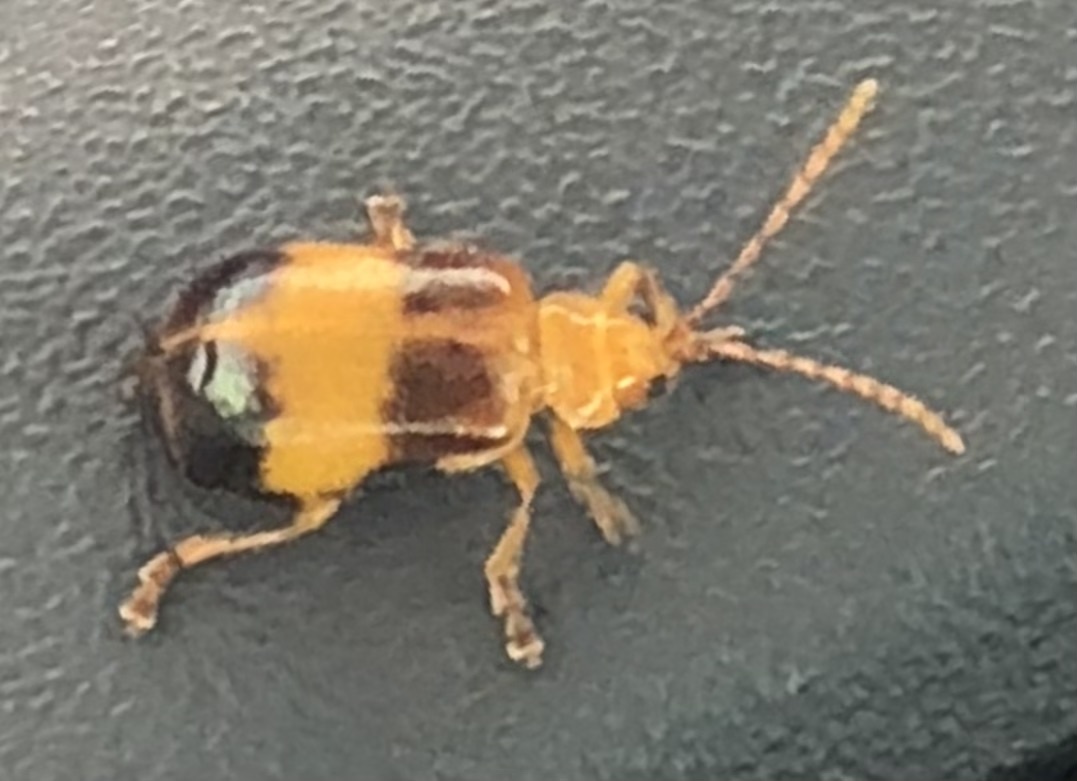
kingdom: Animalia
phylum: Arthropoda
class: Insecta
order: Coleoptera
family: Chrysomelidae
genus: Monocesta
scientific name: Monocesta coryli
